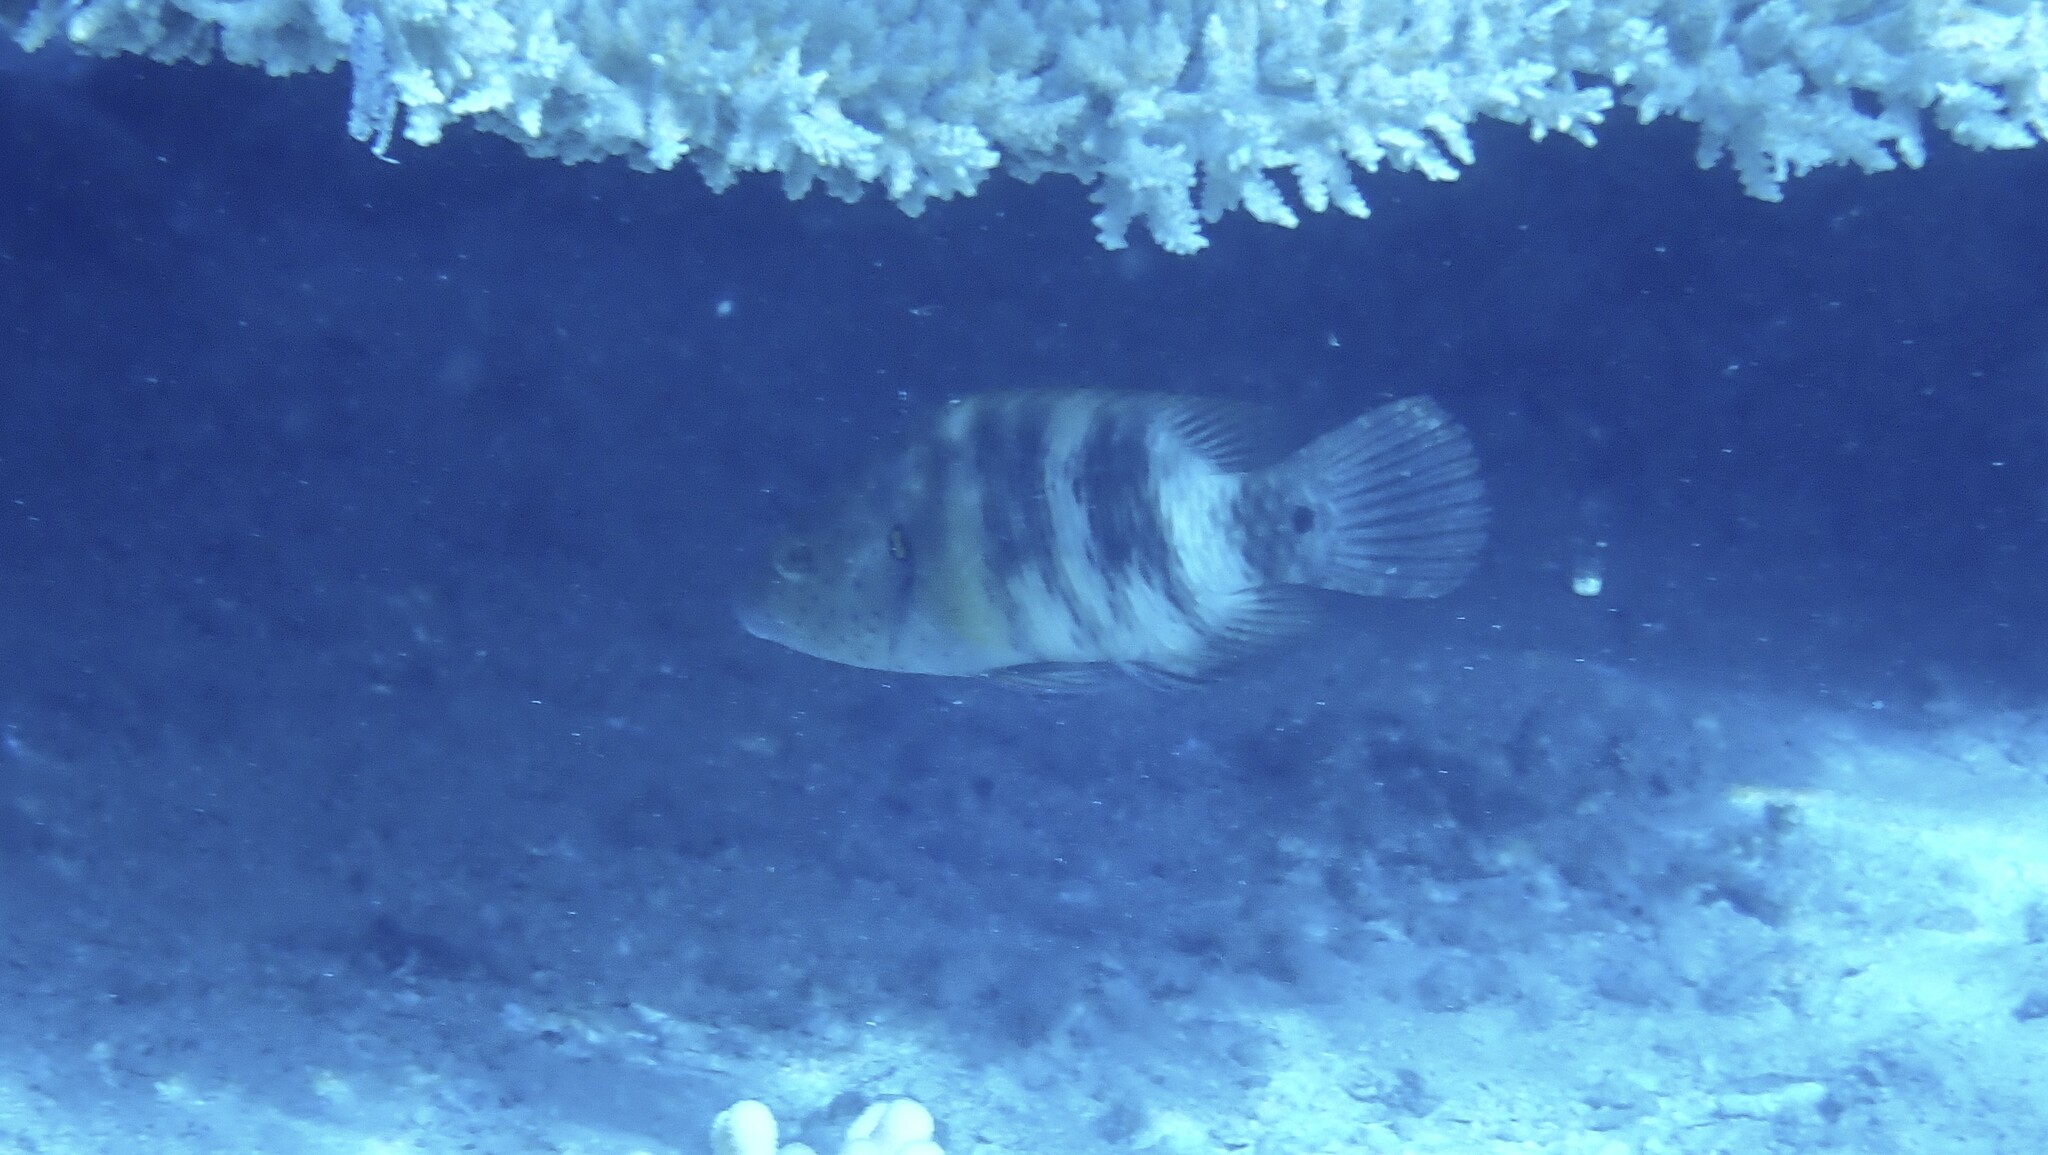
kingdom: Animalia
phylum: Chordata
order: Perciformes
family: Labridae
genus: Cheilinus
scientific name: Cheilinus lunulatus
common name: Broomtail wrasse
